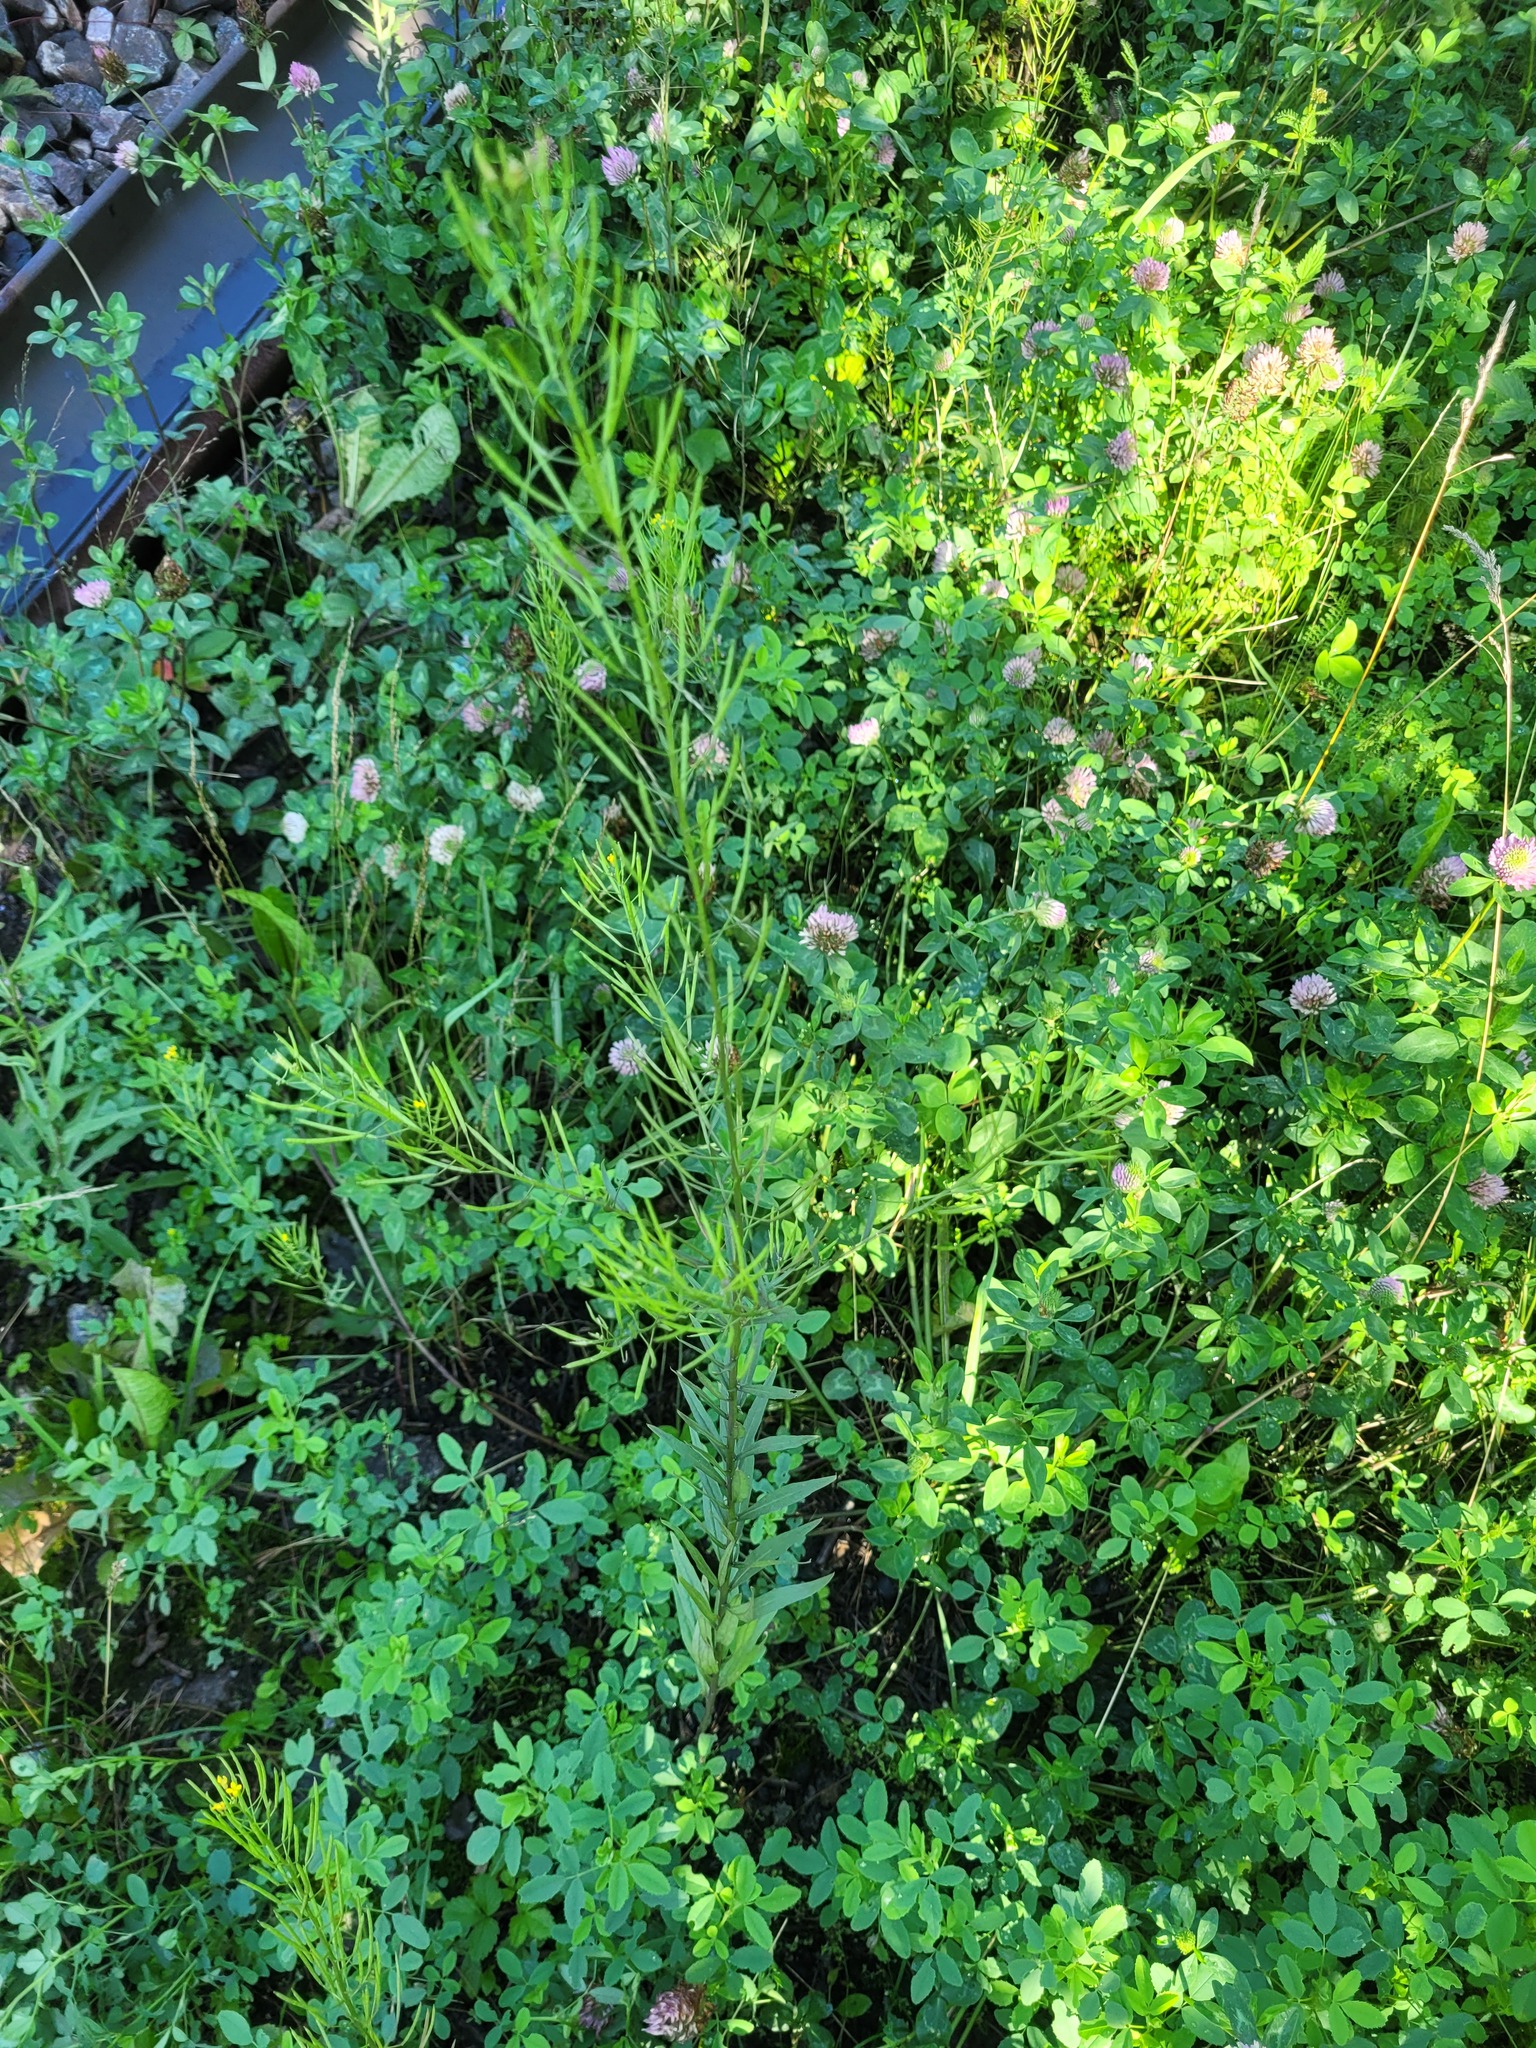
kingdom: Plantae
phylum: Tracheophyta
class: Magnoliopsida
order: Brassicales
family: Brassicaceae
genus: Erysimum
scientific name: Erysimum cheiranthoides
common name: Treacle mustard
